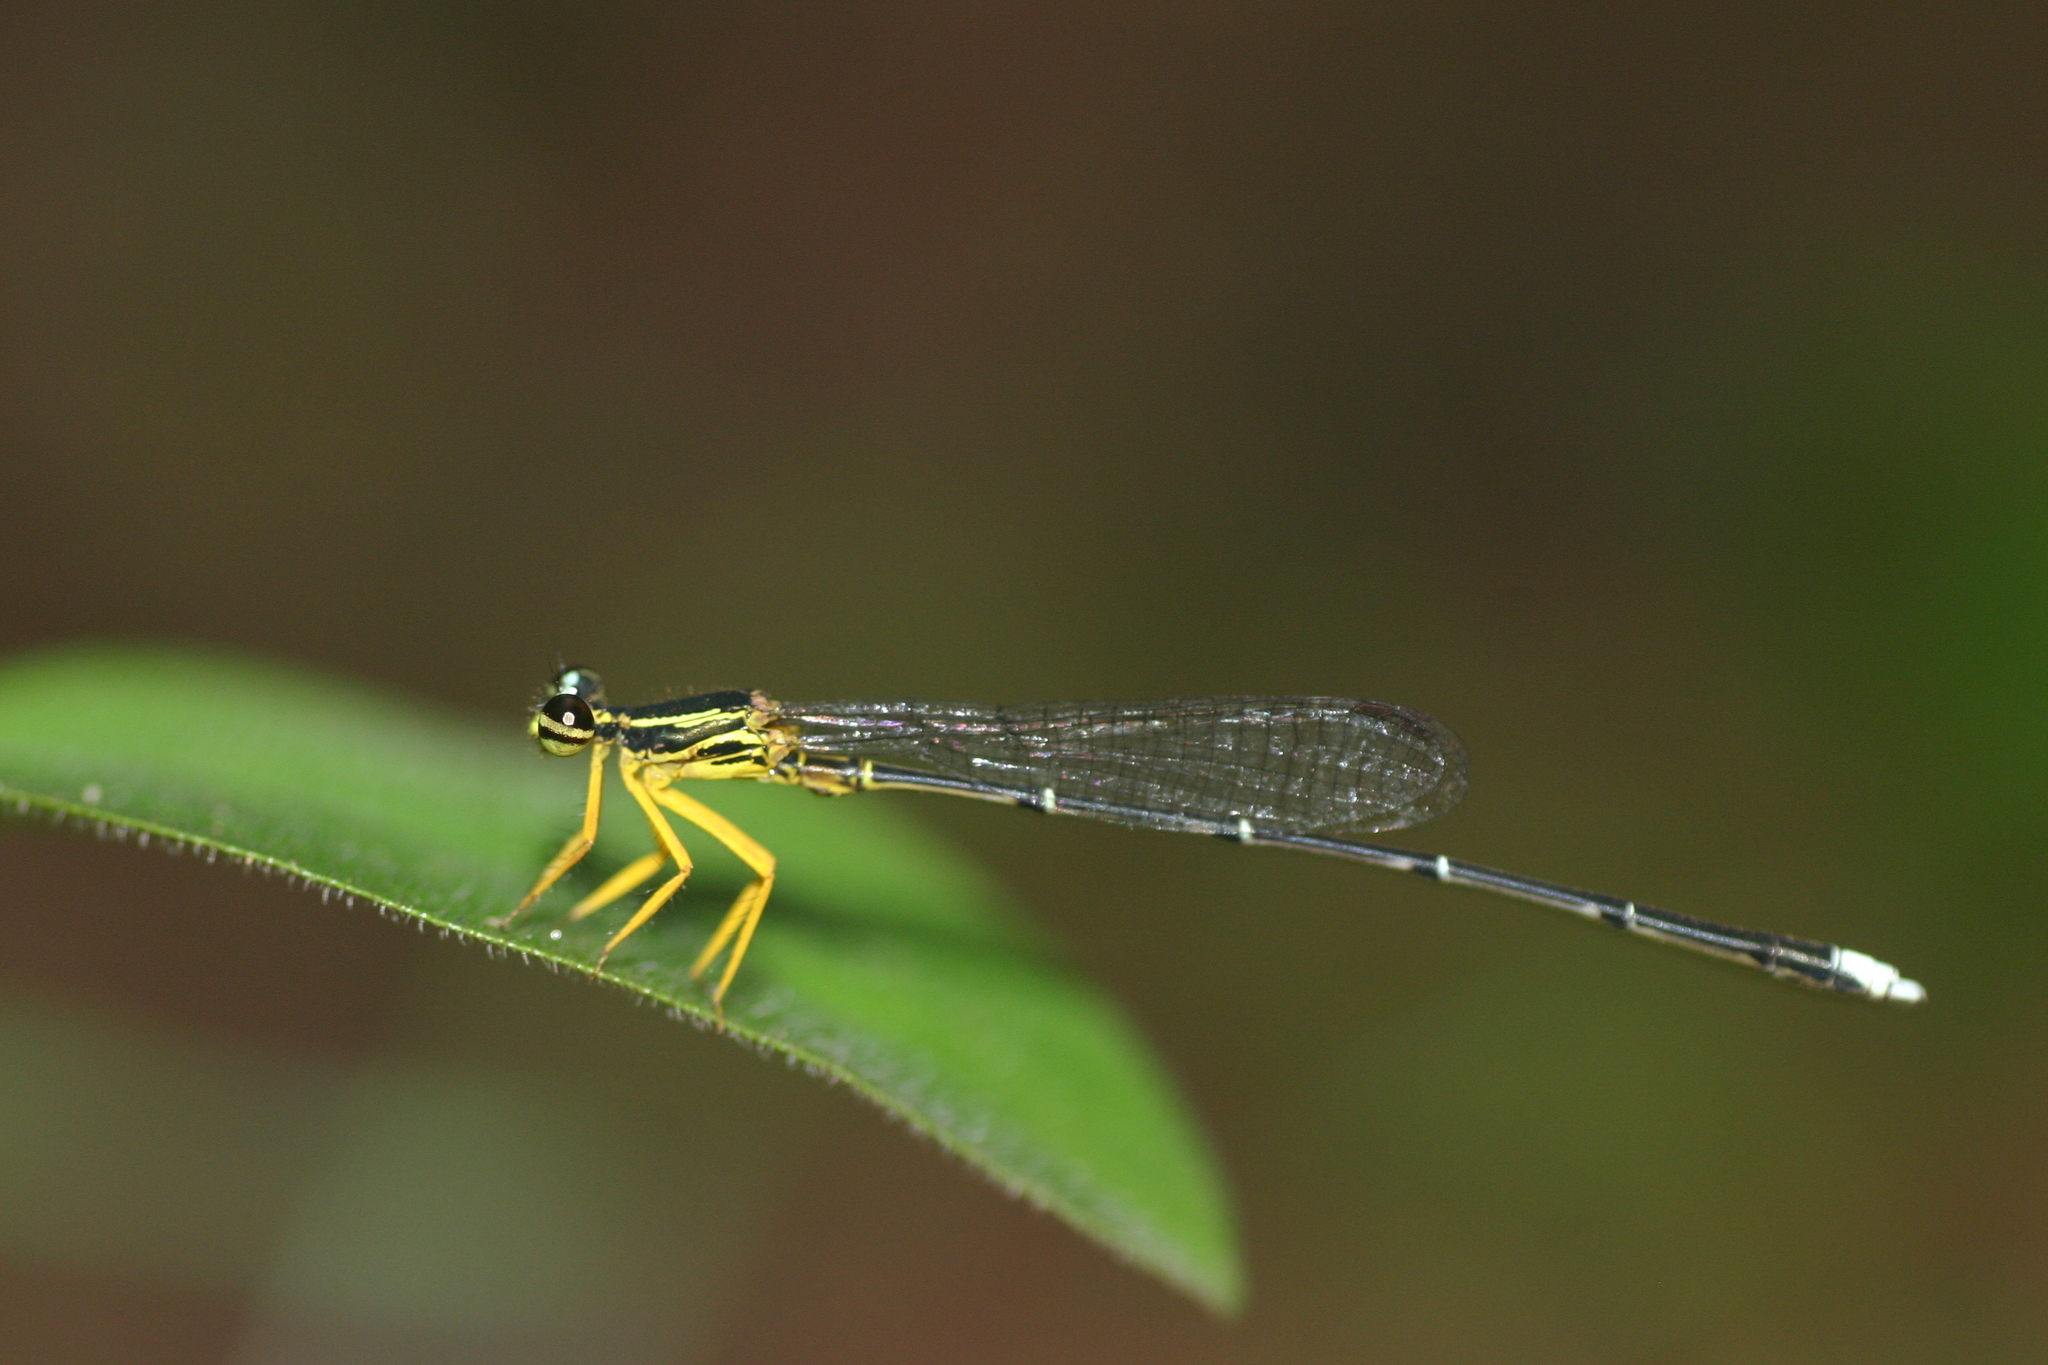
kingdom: Animalia
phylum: Arthropoda
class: Insecta
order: Odonata
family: Platycnemididae
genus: Copera
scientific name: Copera marginipes
